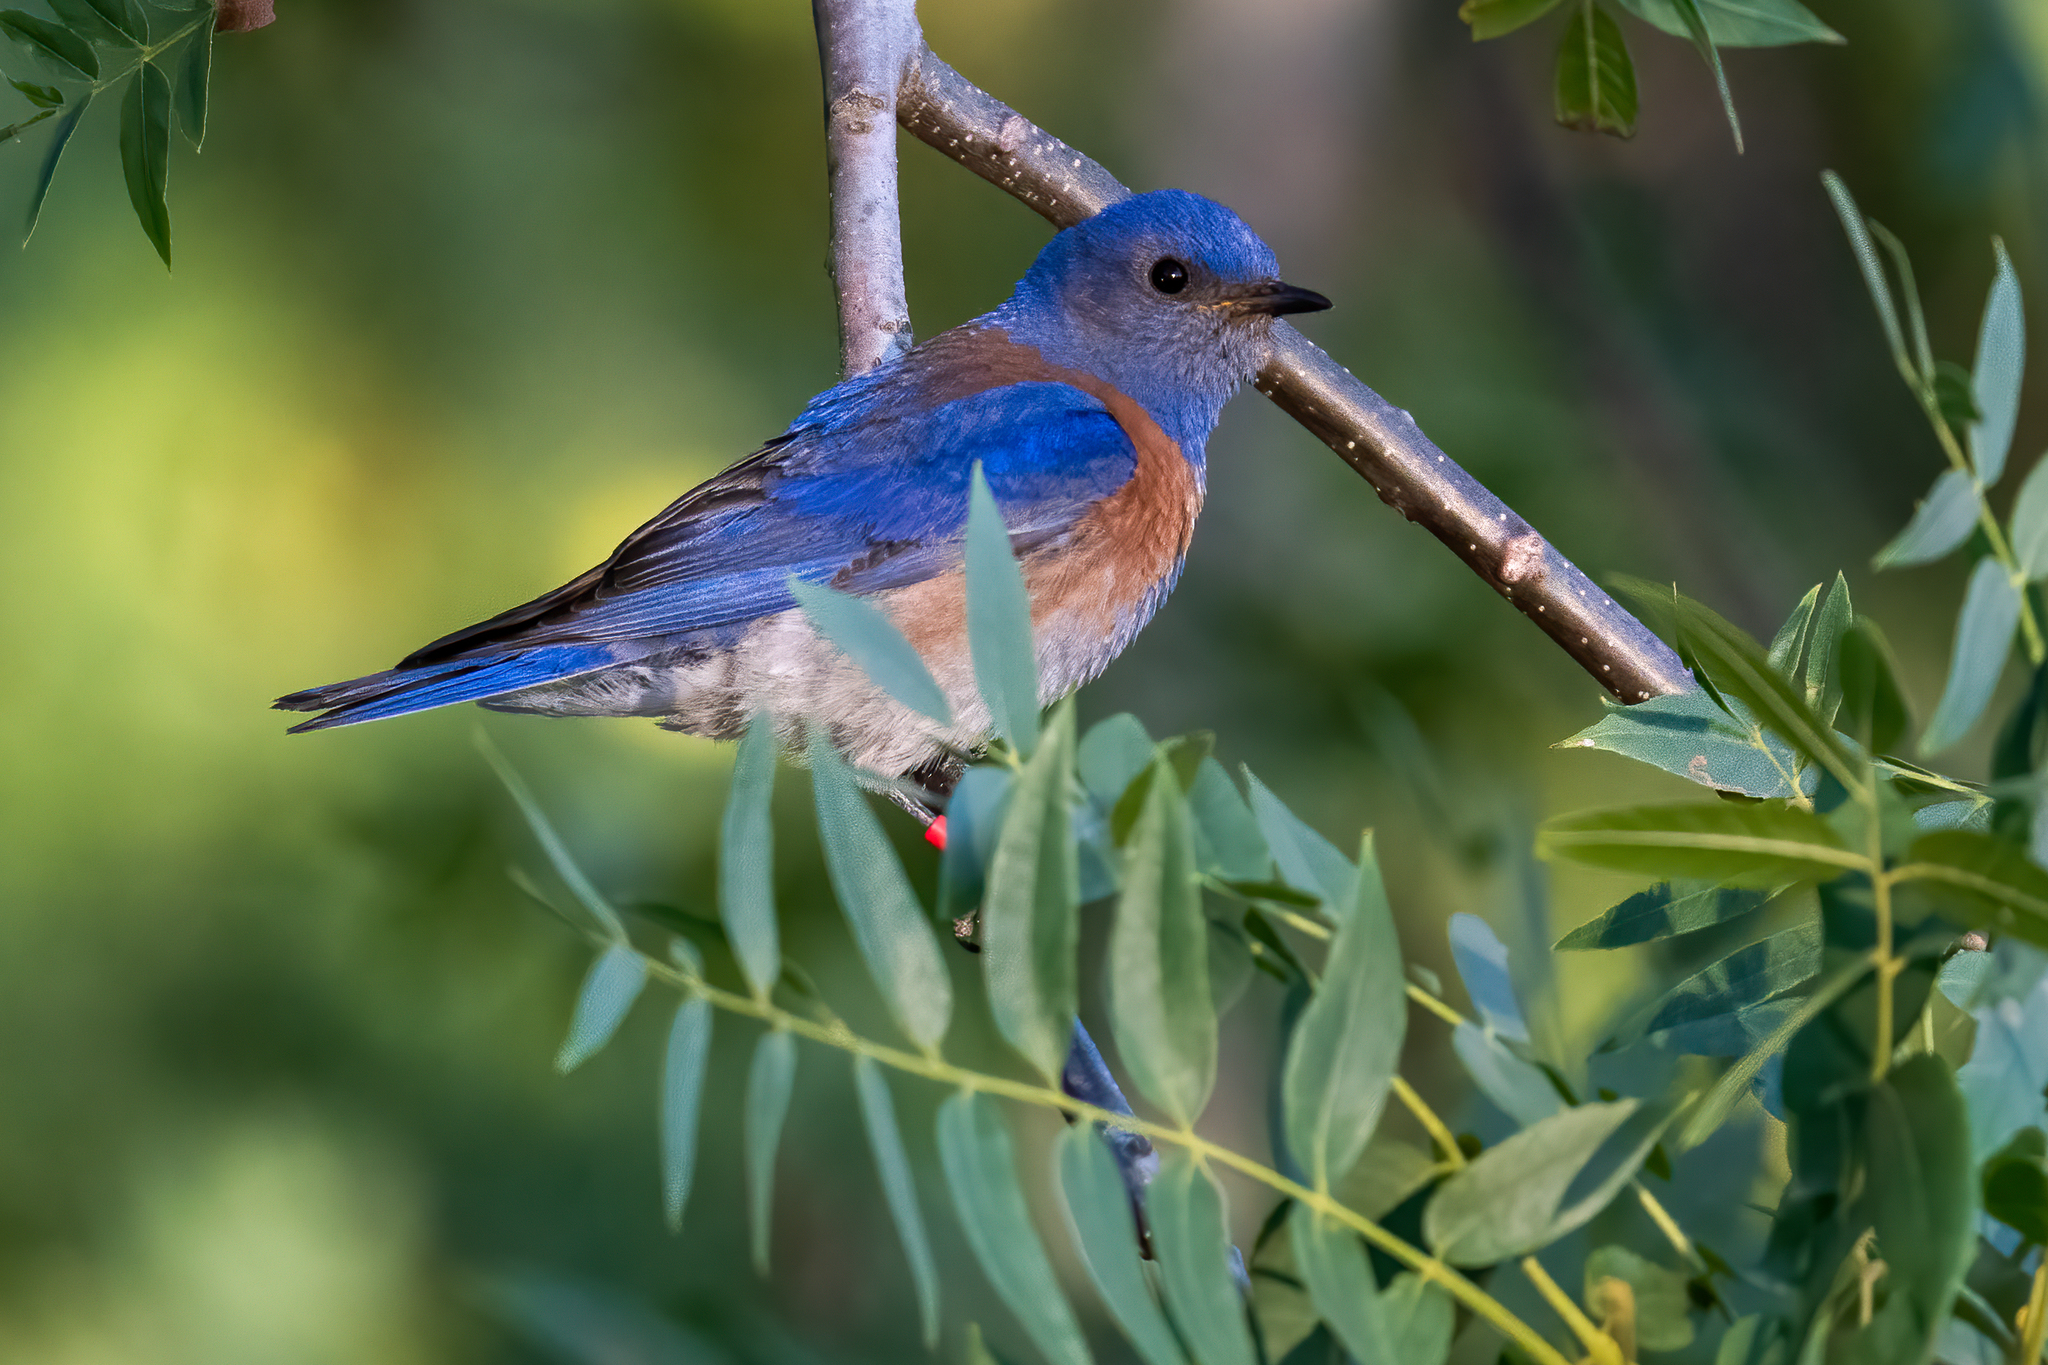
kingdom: Animalia
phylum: Chordata
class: Aves
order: Passeriformes
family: Turdidae
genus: Sialia
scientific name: Sialia mexicana
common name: Western bluebird
